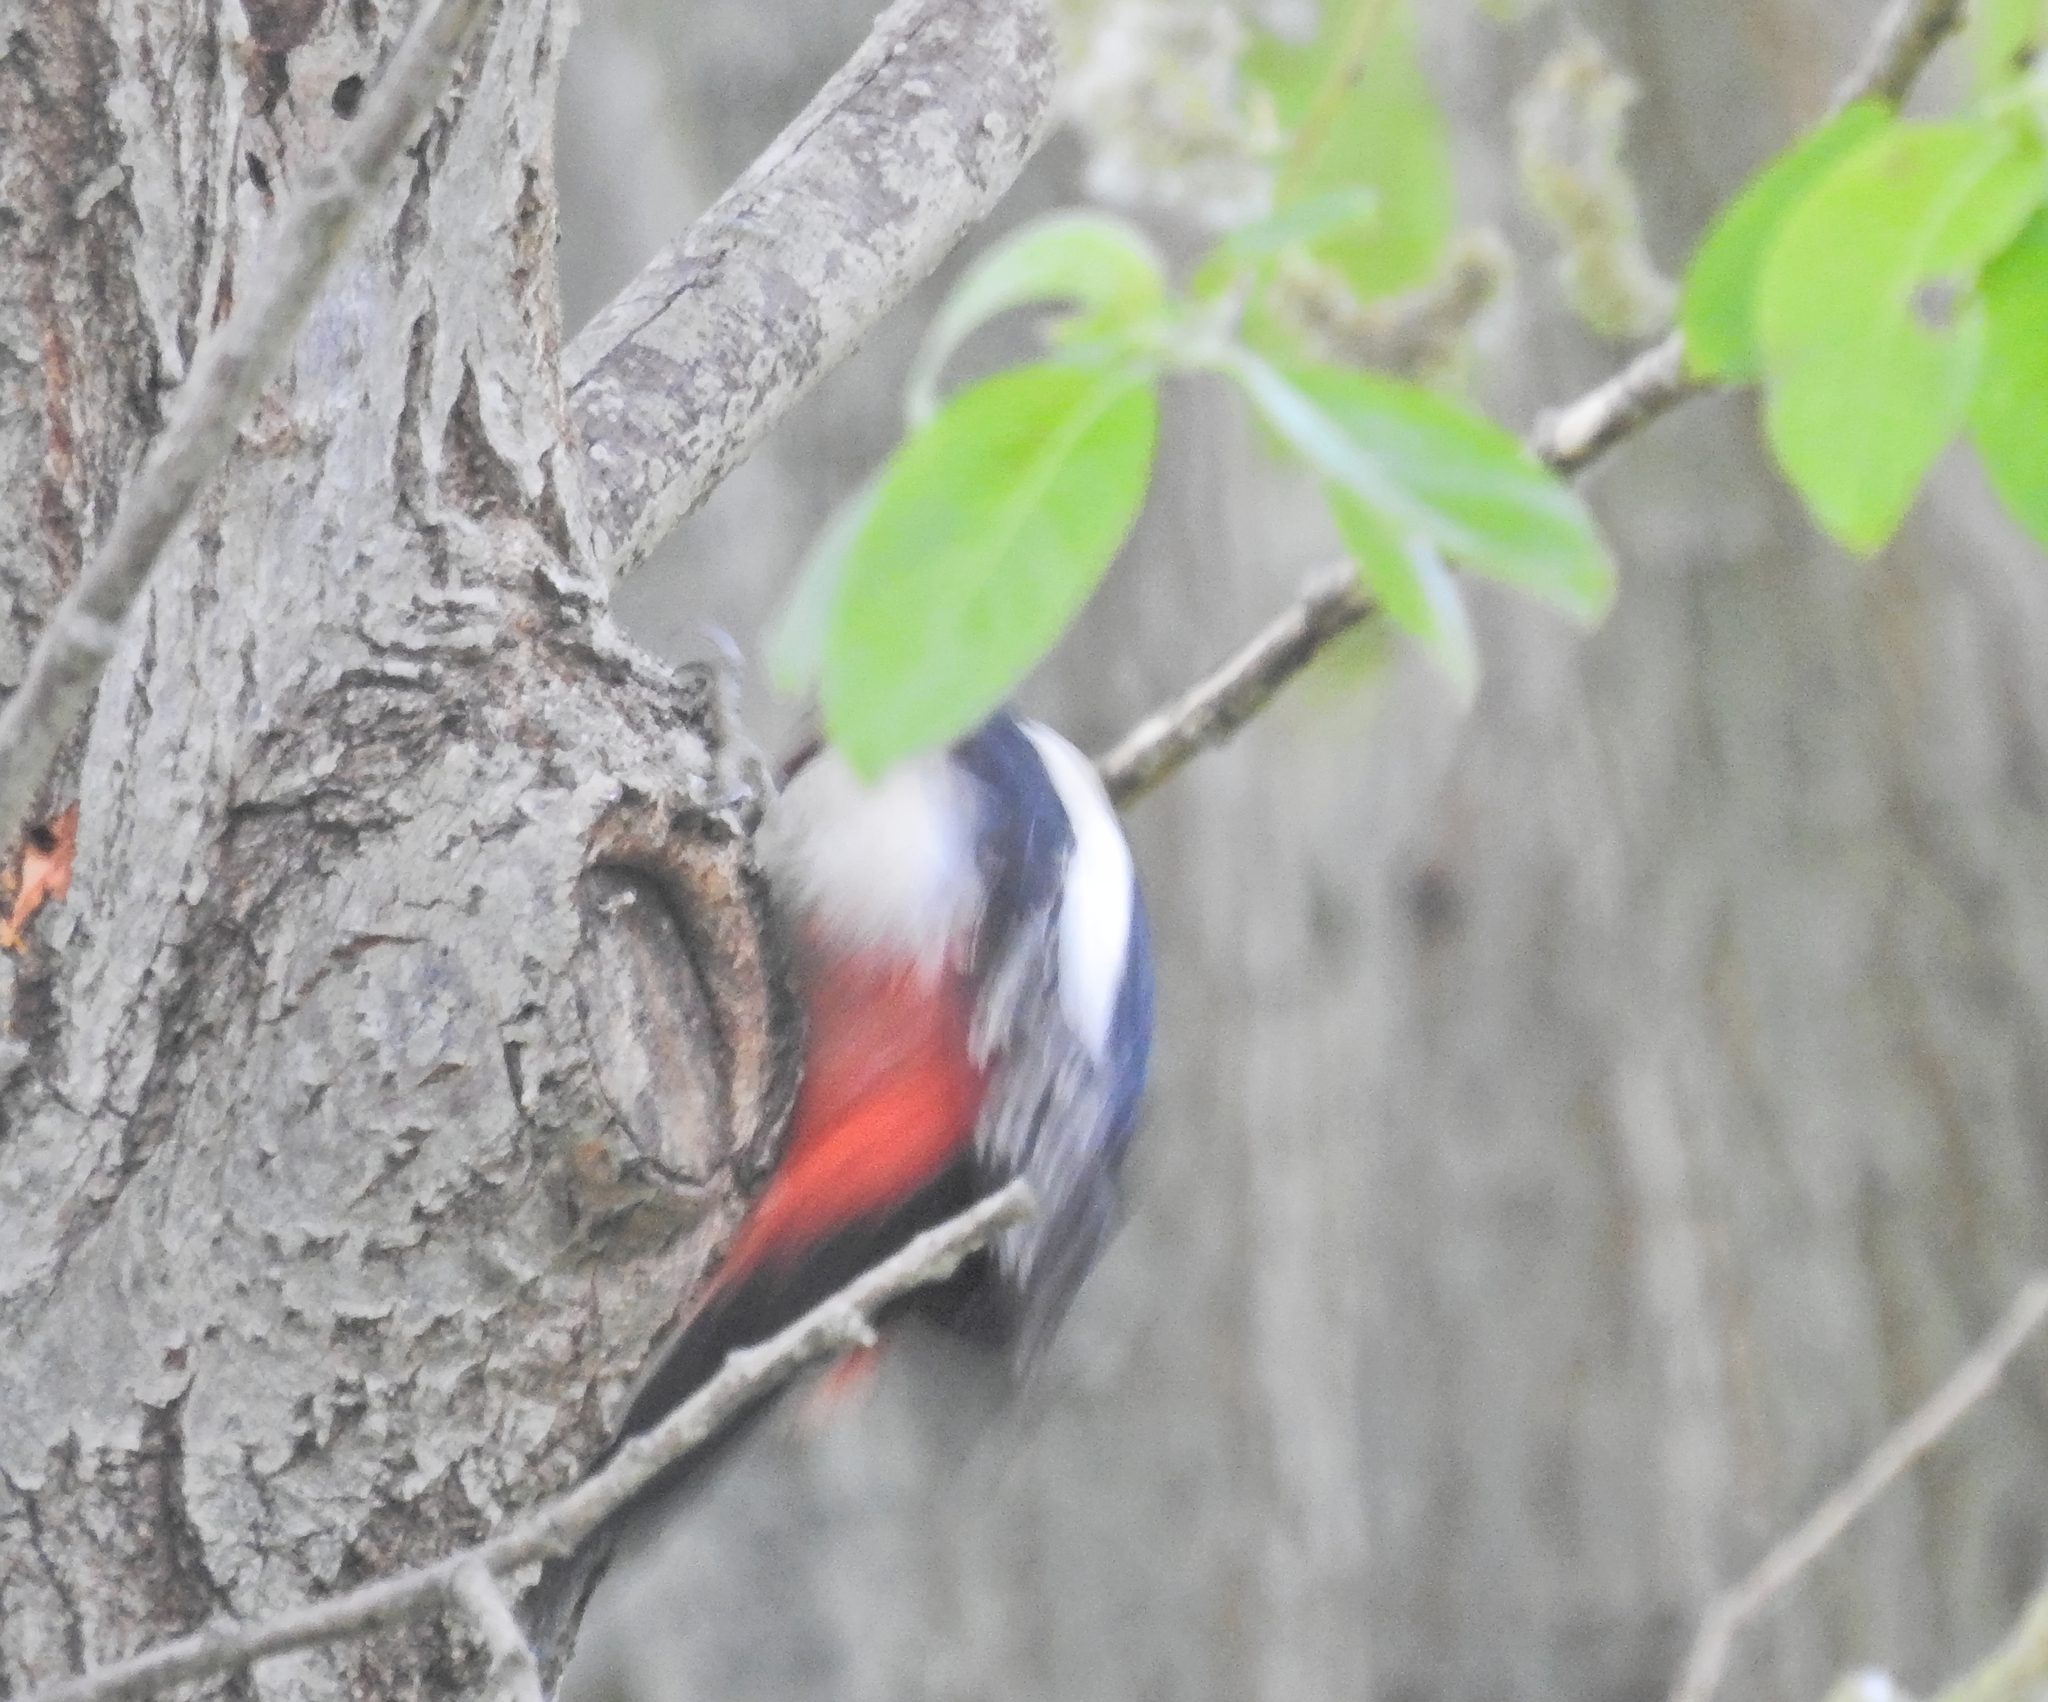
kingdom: Animalia
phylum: Chordata
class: Aves
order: Piciformes
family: Picidae
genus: Dendrocopos
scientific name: Dendrocopos major
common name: Great spotted woodpecker
